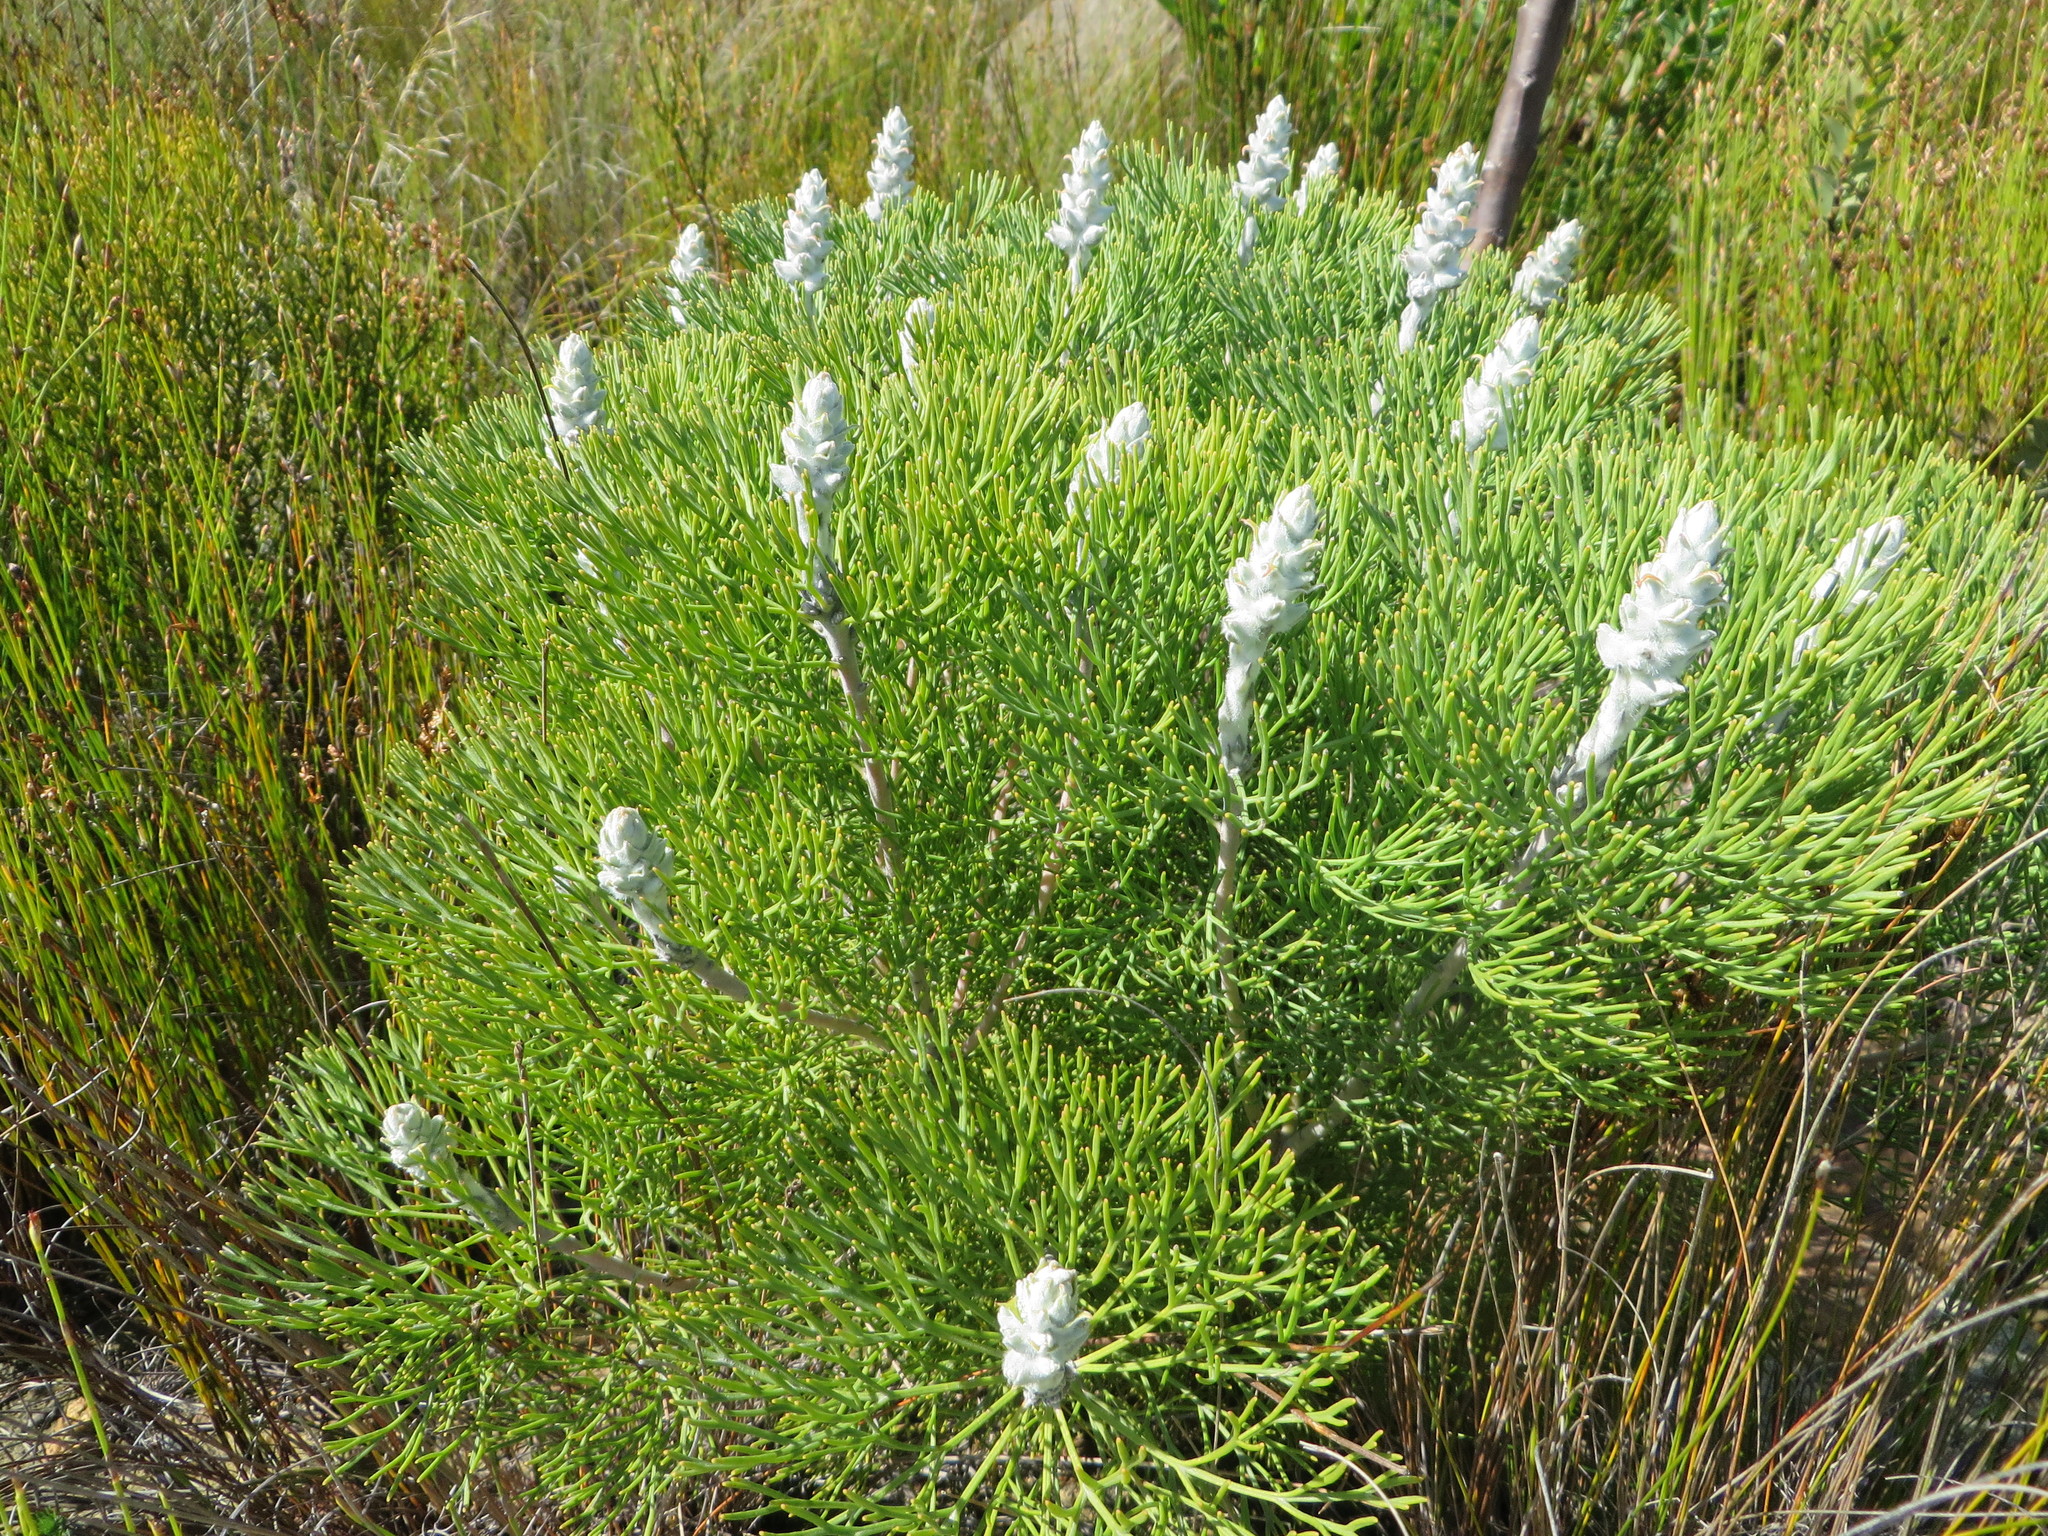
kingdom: Plantae
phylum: Tracheophyta
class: Magnoliopsida
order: Proteales
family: Proteaceae
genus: Paranomus
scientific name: Paranomus spicatus
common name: Kogelberg sceptre
